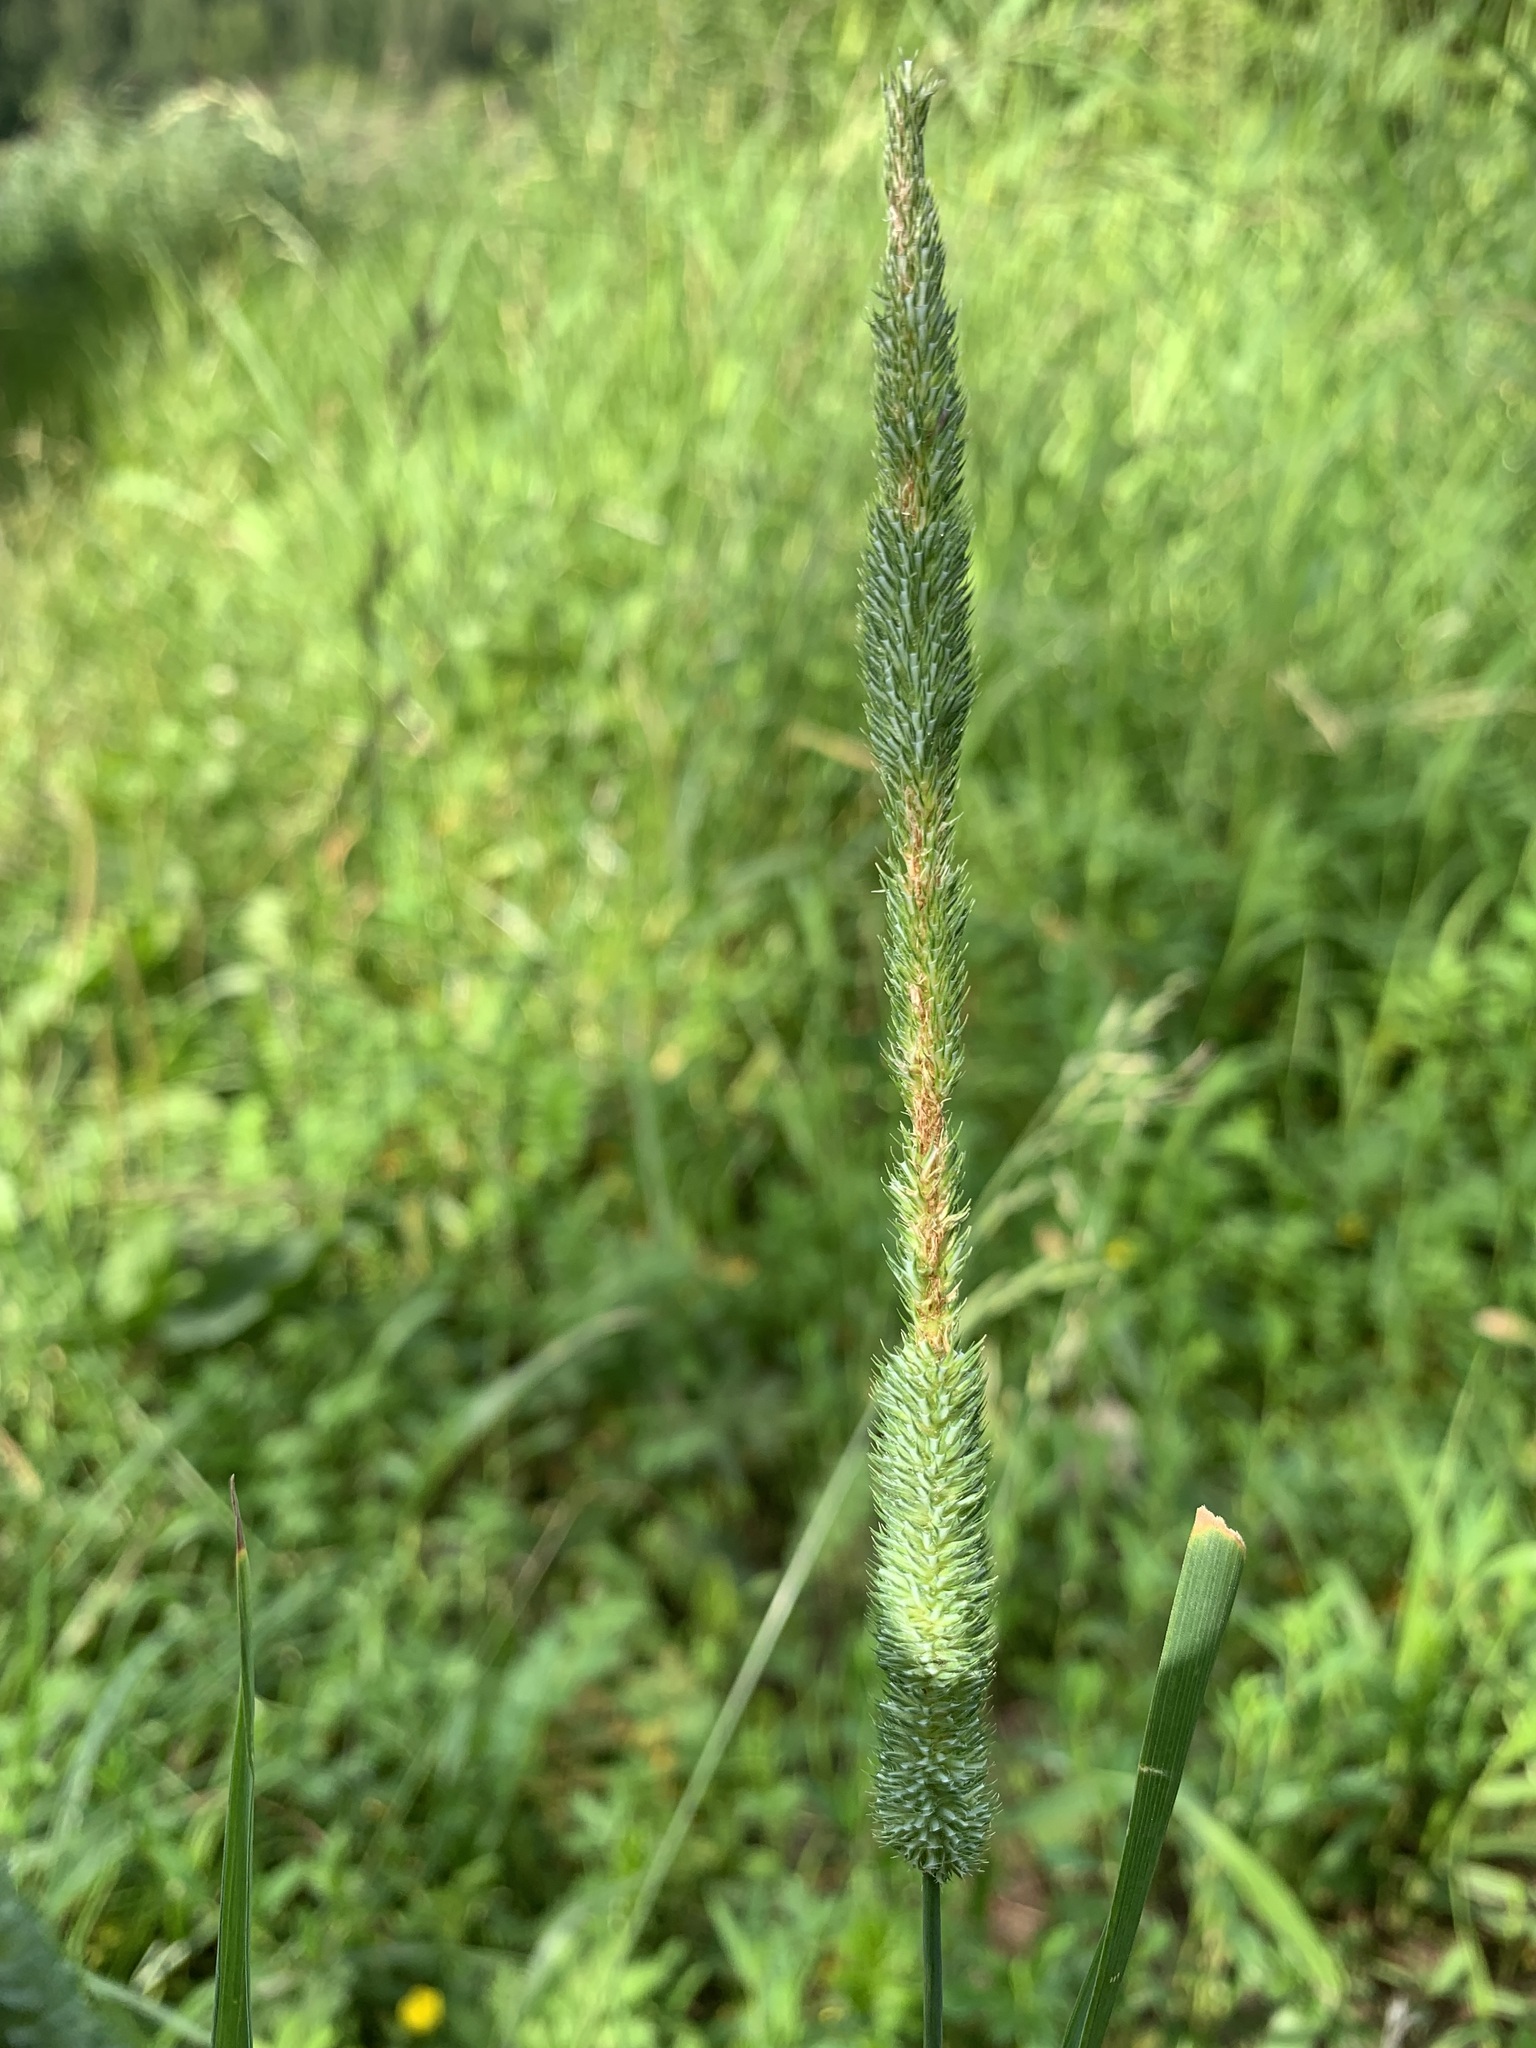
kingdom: Plantae
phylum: Tracheophyta
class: Liliopsida
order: Poales
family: Poaceae
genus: Phleum
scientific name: Phleum pratense
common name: Timothy grass
